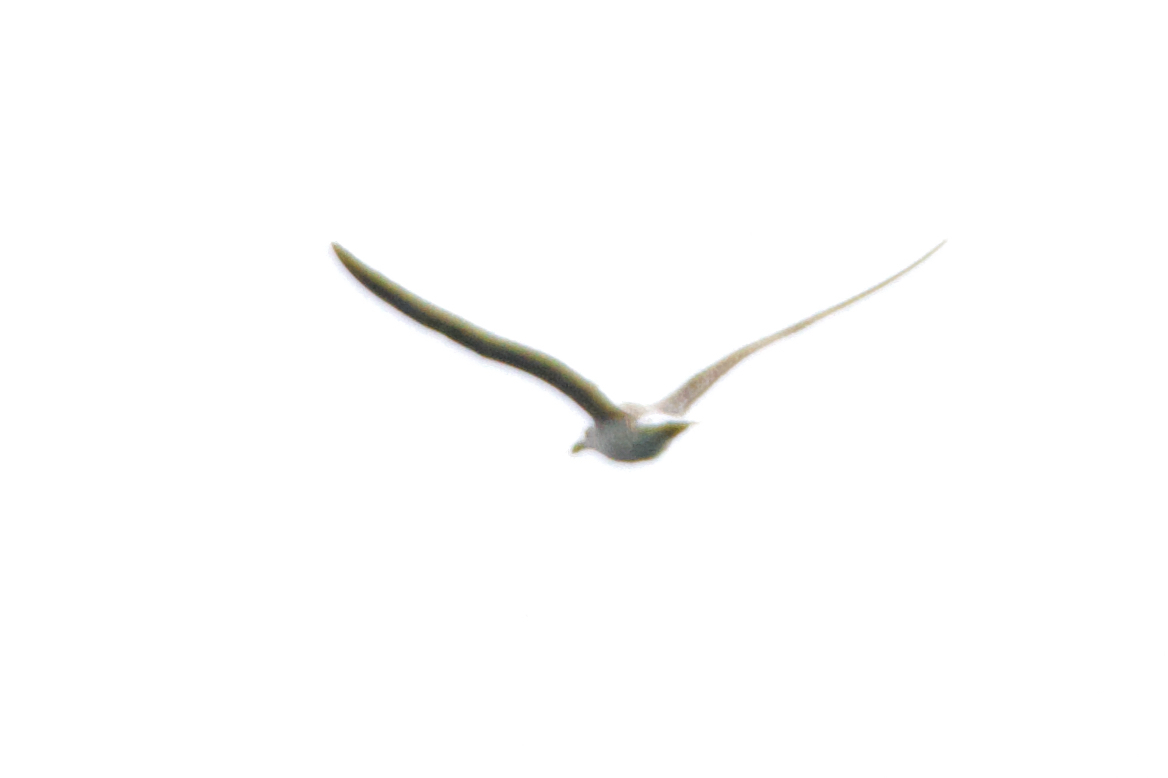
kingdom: Animalia
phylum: Chordata
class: Aves
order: Charadriiformes
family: Laridae
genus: Larus
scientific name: Larus michahellis
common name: Yellow-legged gull
